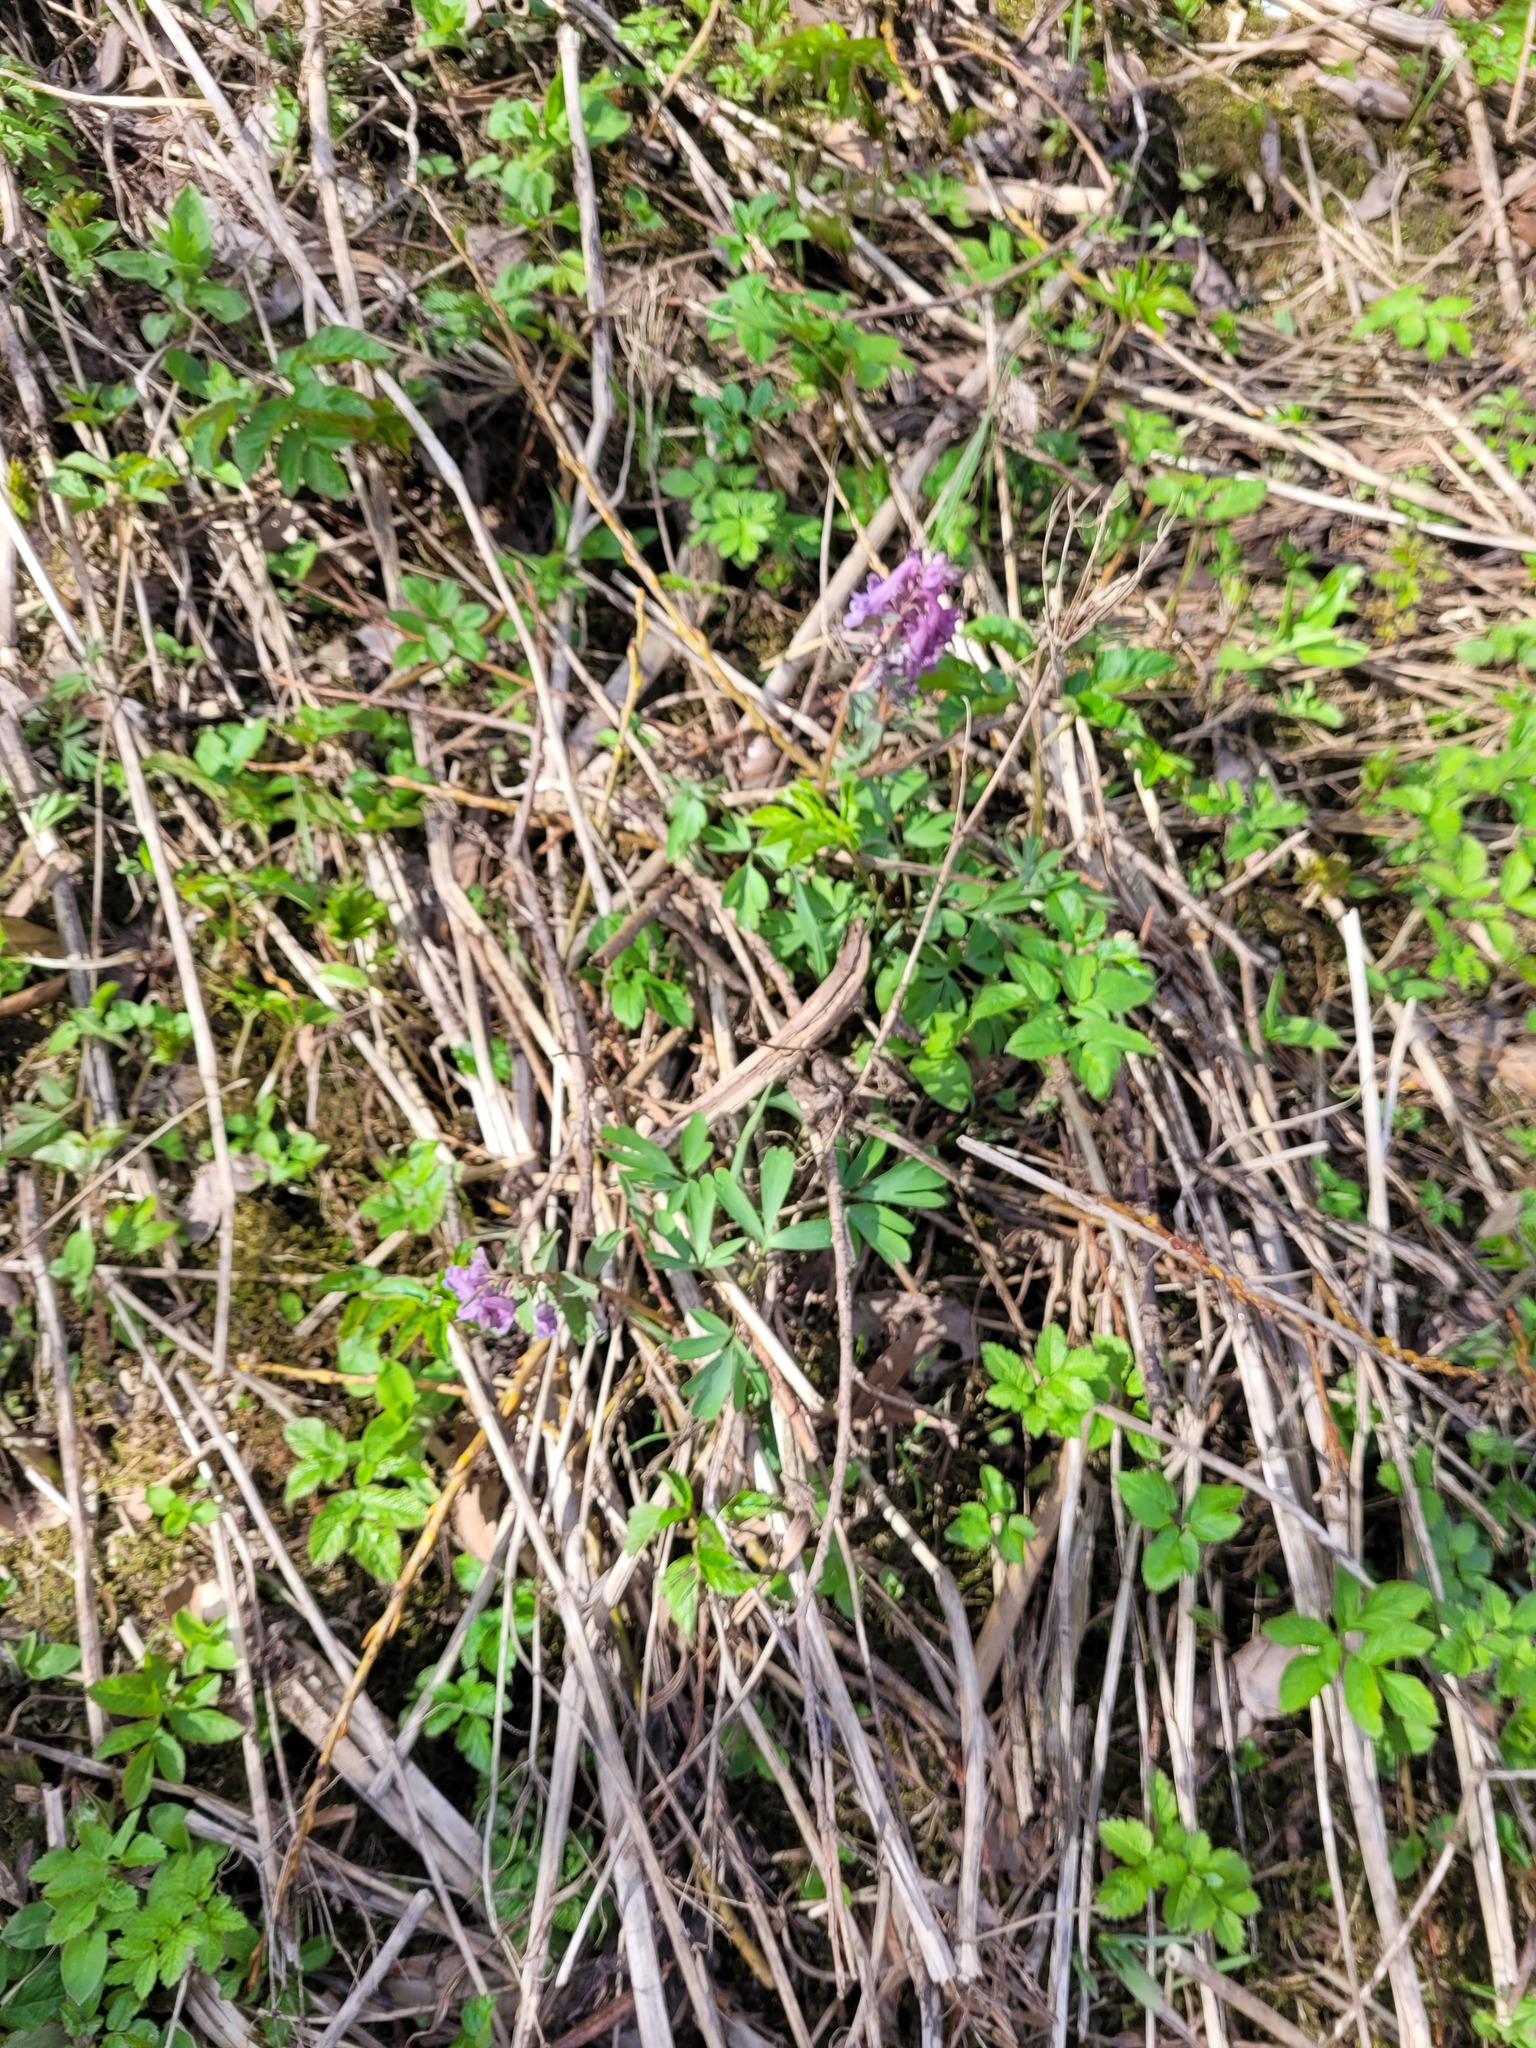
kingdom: Plantae
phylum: Tracheophyta
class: Magnoliopsida
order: Ranunculales
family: Papaveraceae
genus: Corydalis
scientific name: Corydalis solida
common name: Bird-in-a-bush
